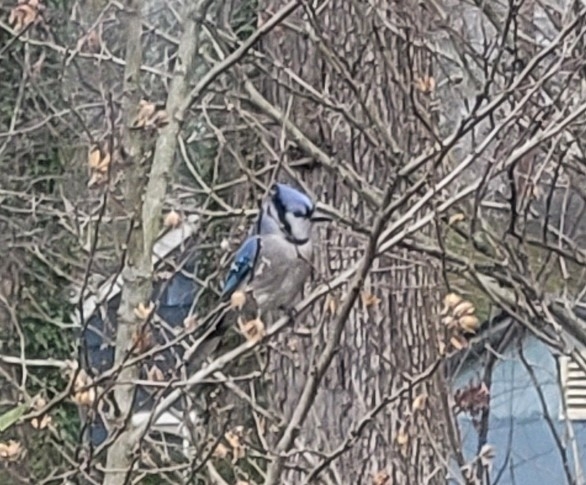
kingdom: Animalia
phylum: Chordata
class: Aves
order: Passeriformes
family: Corvidae
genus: Cyanocitta
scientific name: Cyanocitta cristata
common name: Blue jay
